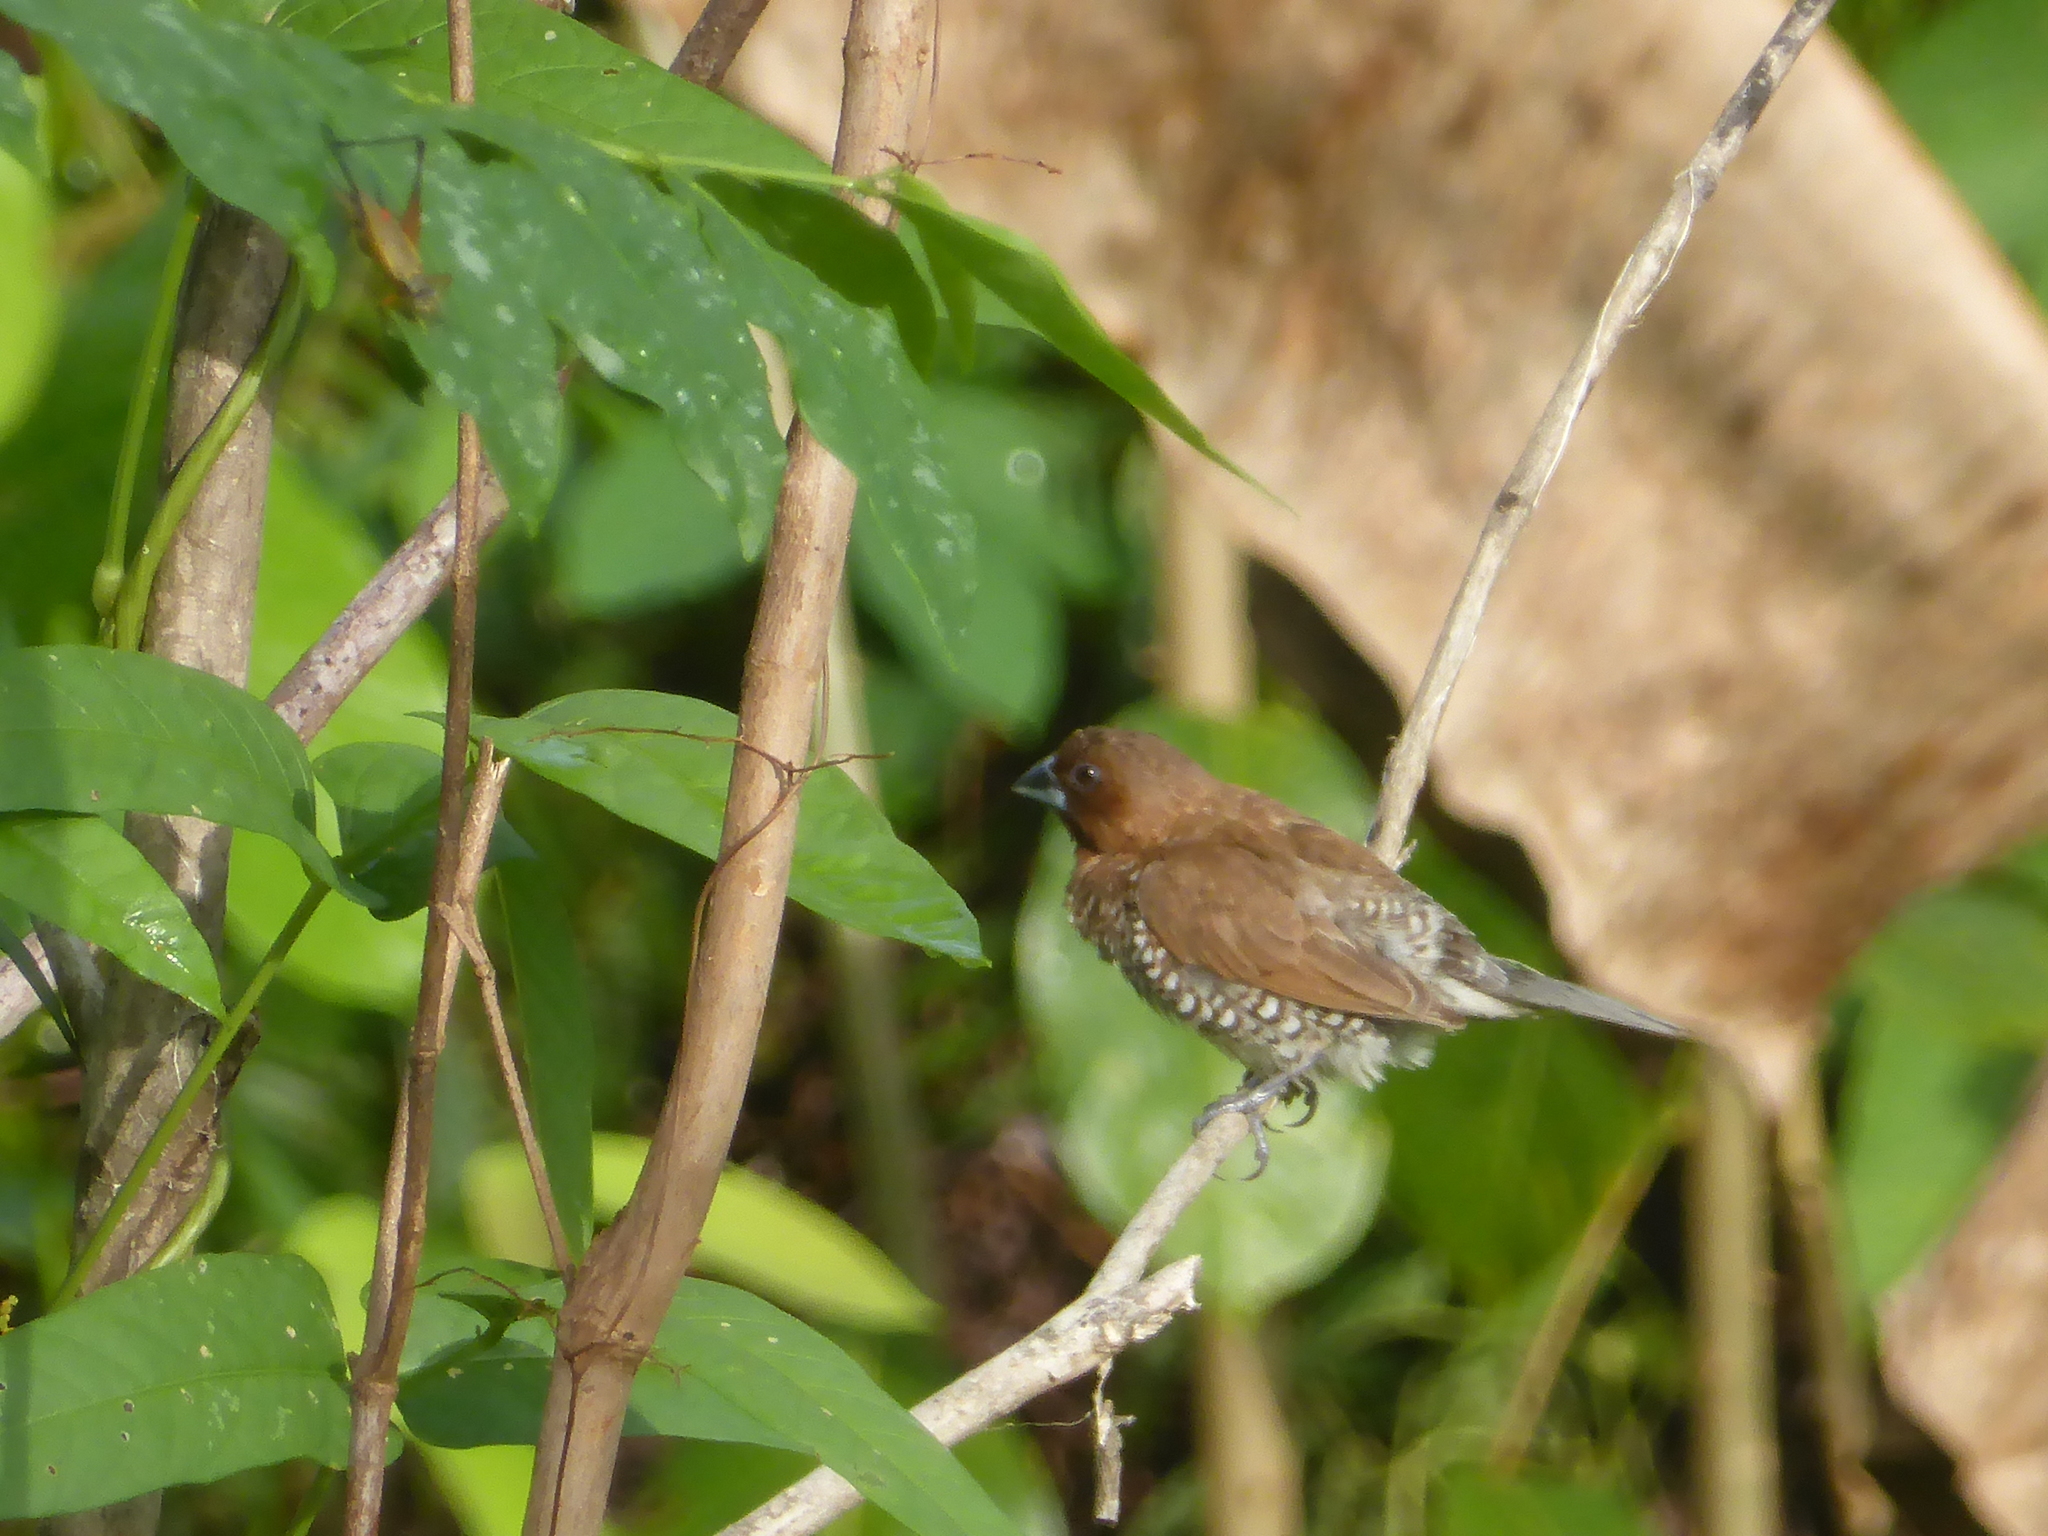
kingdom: Animalia
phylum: Chordata
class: Aves
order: Passeriformes
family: Estrildidae
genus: Lonchura
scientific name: Lonchura punctulata
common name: Scaly-breasted munia
